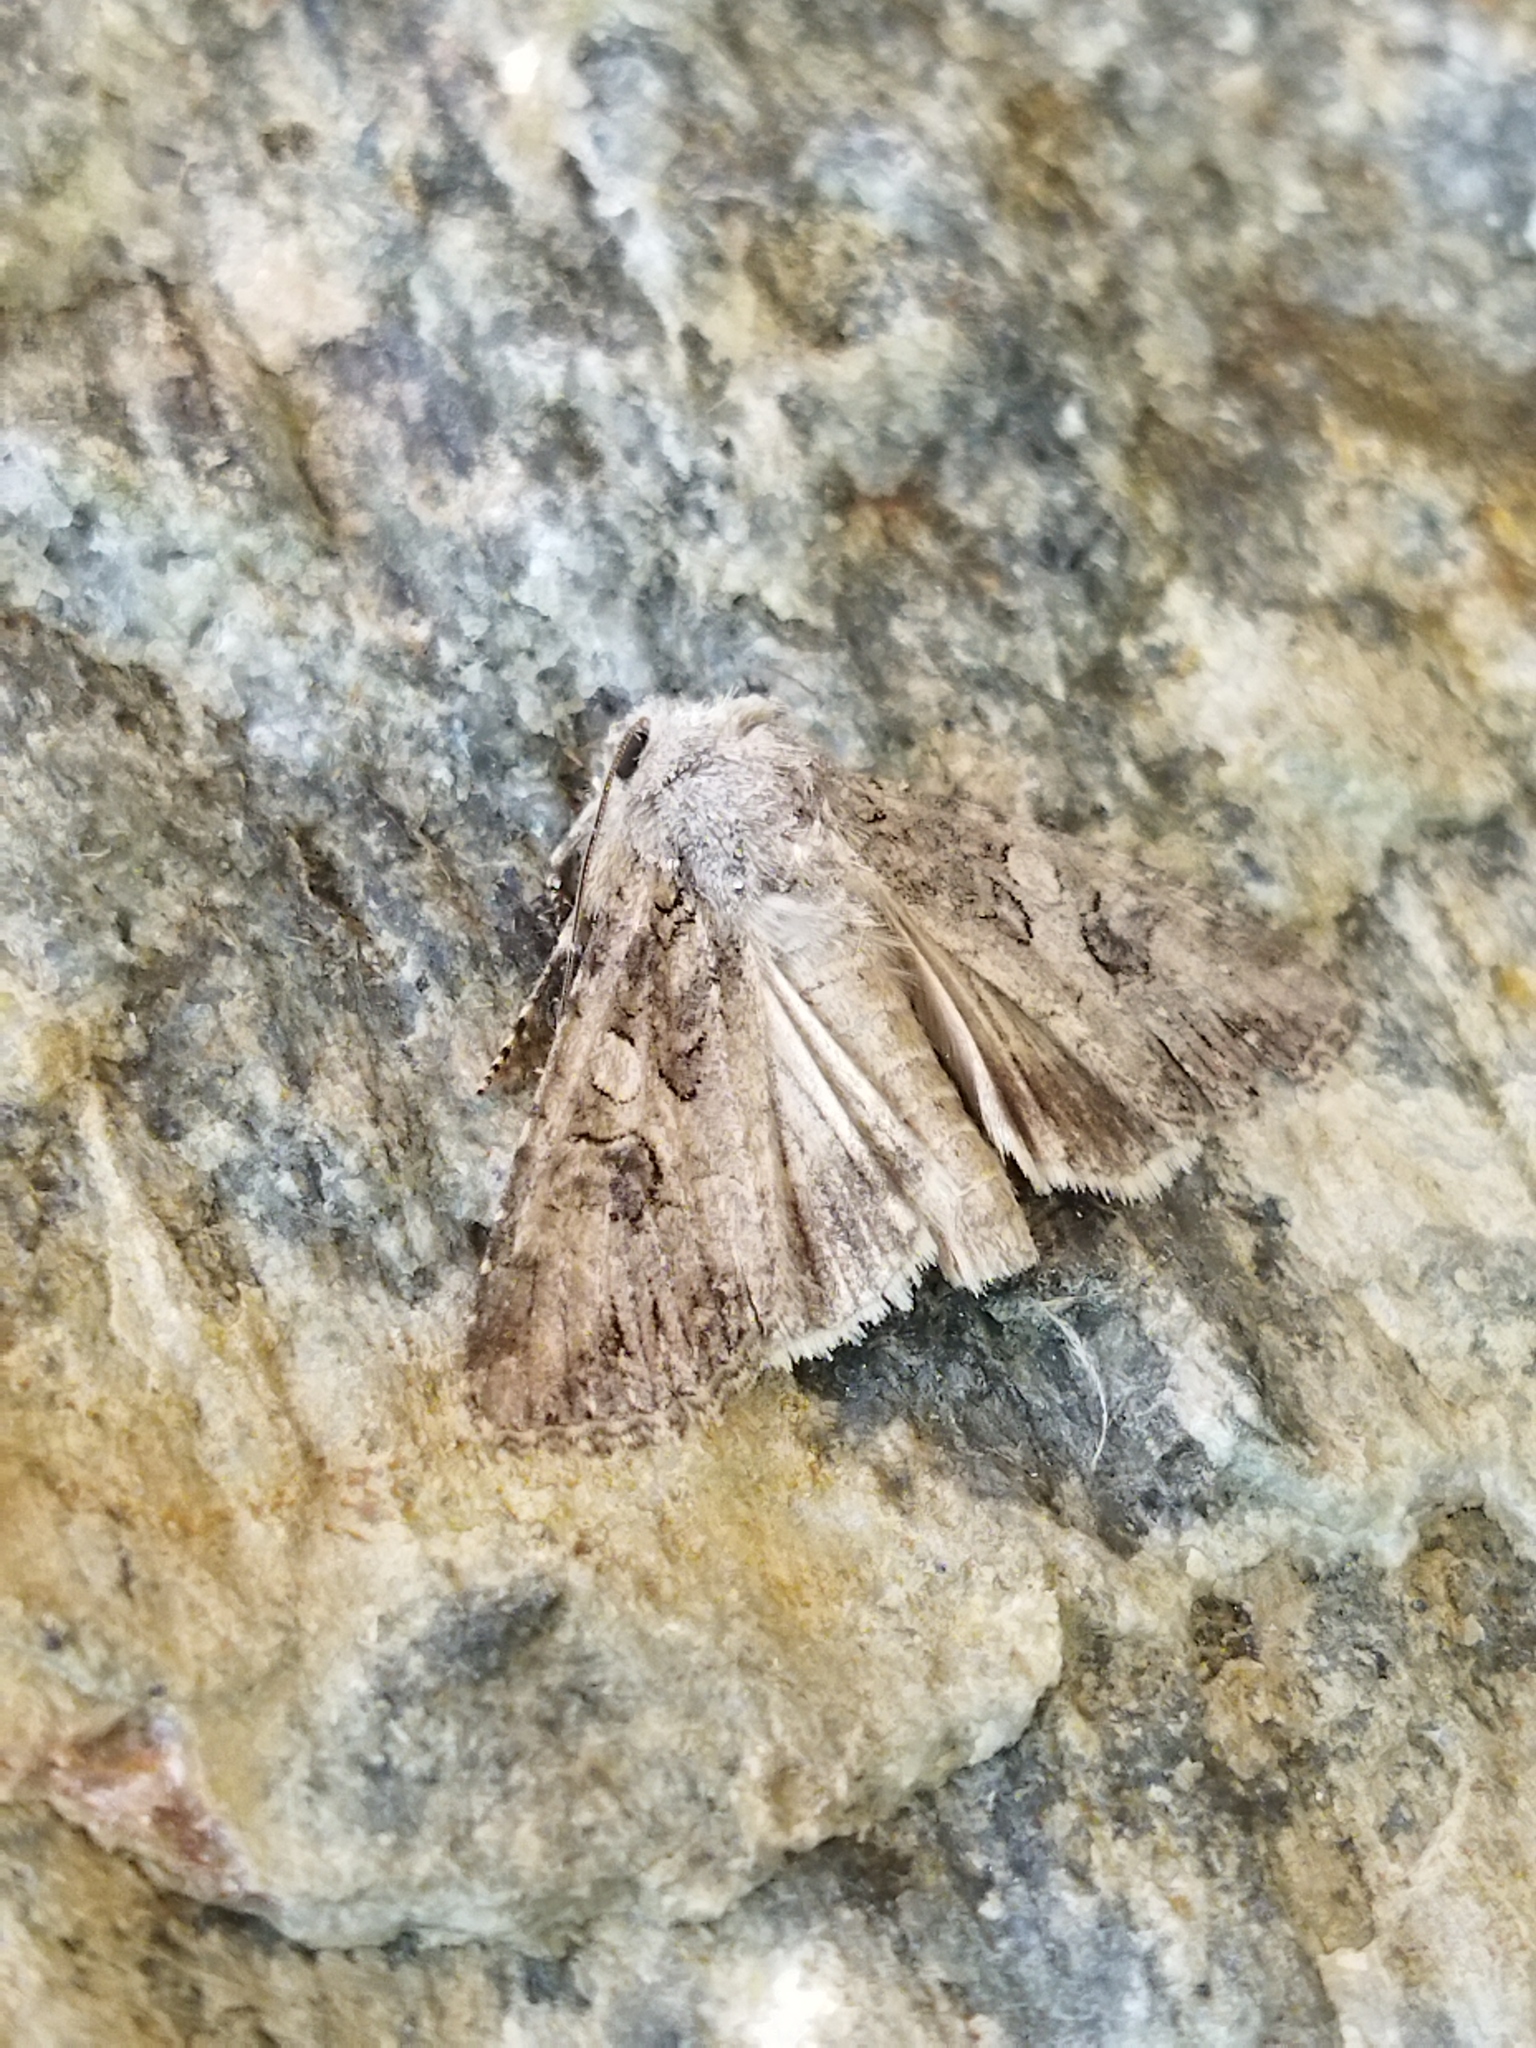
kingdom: Animalia
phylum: Arthropoda
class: Insecta
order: Lepidoptera
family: Noctuidae
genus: Anarta
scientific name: Anarta trifolii
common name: Clover cutworm moth
